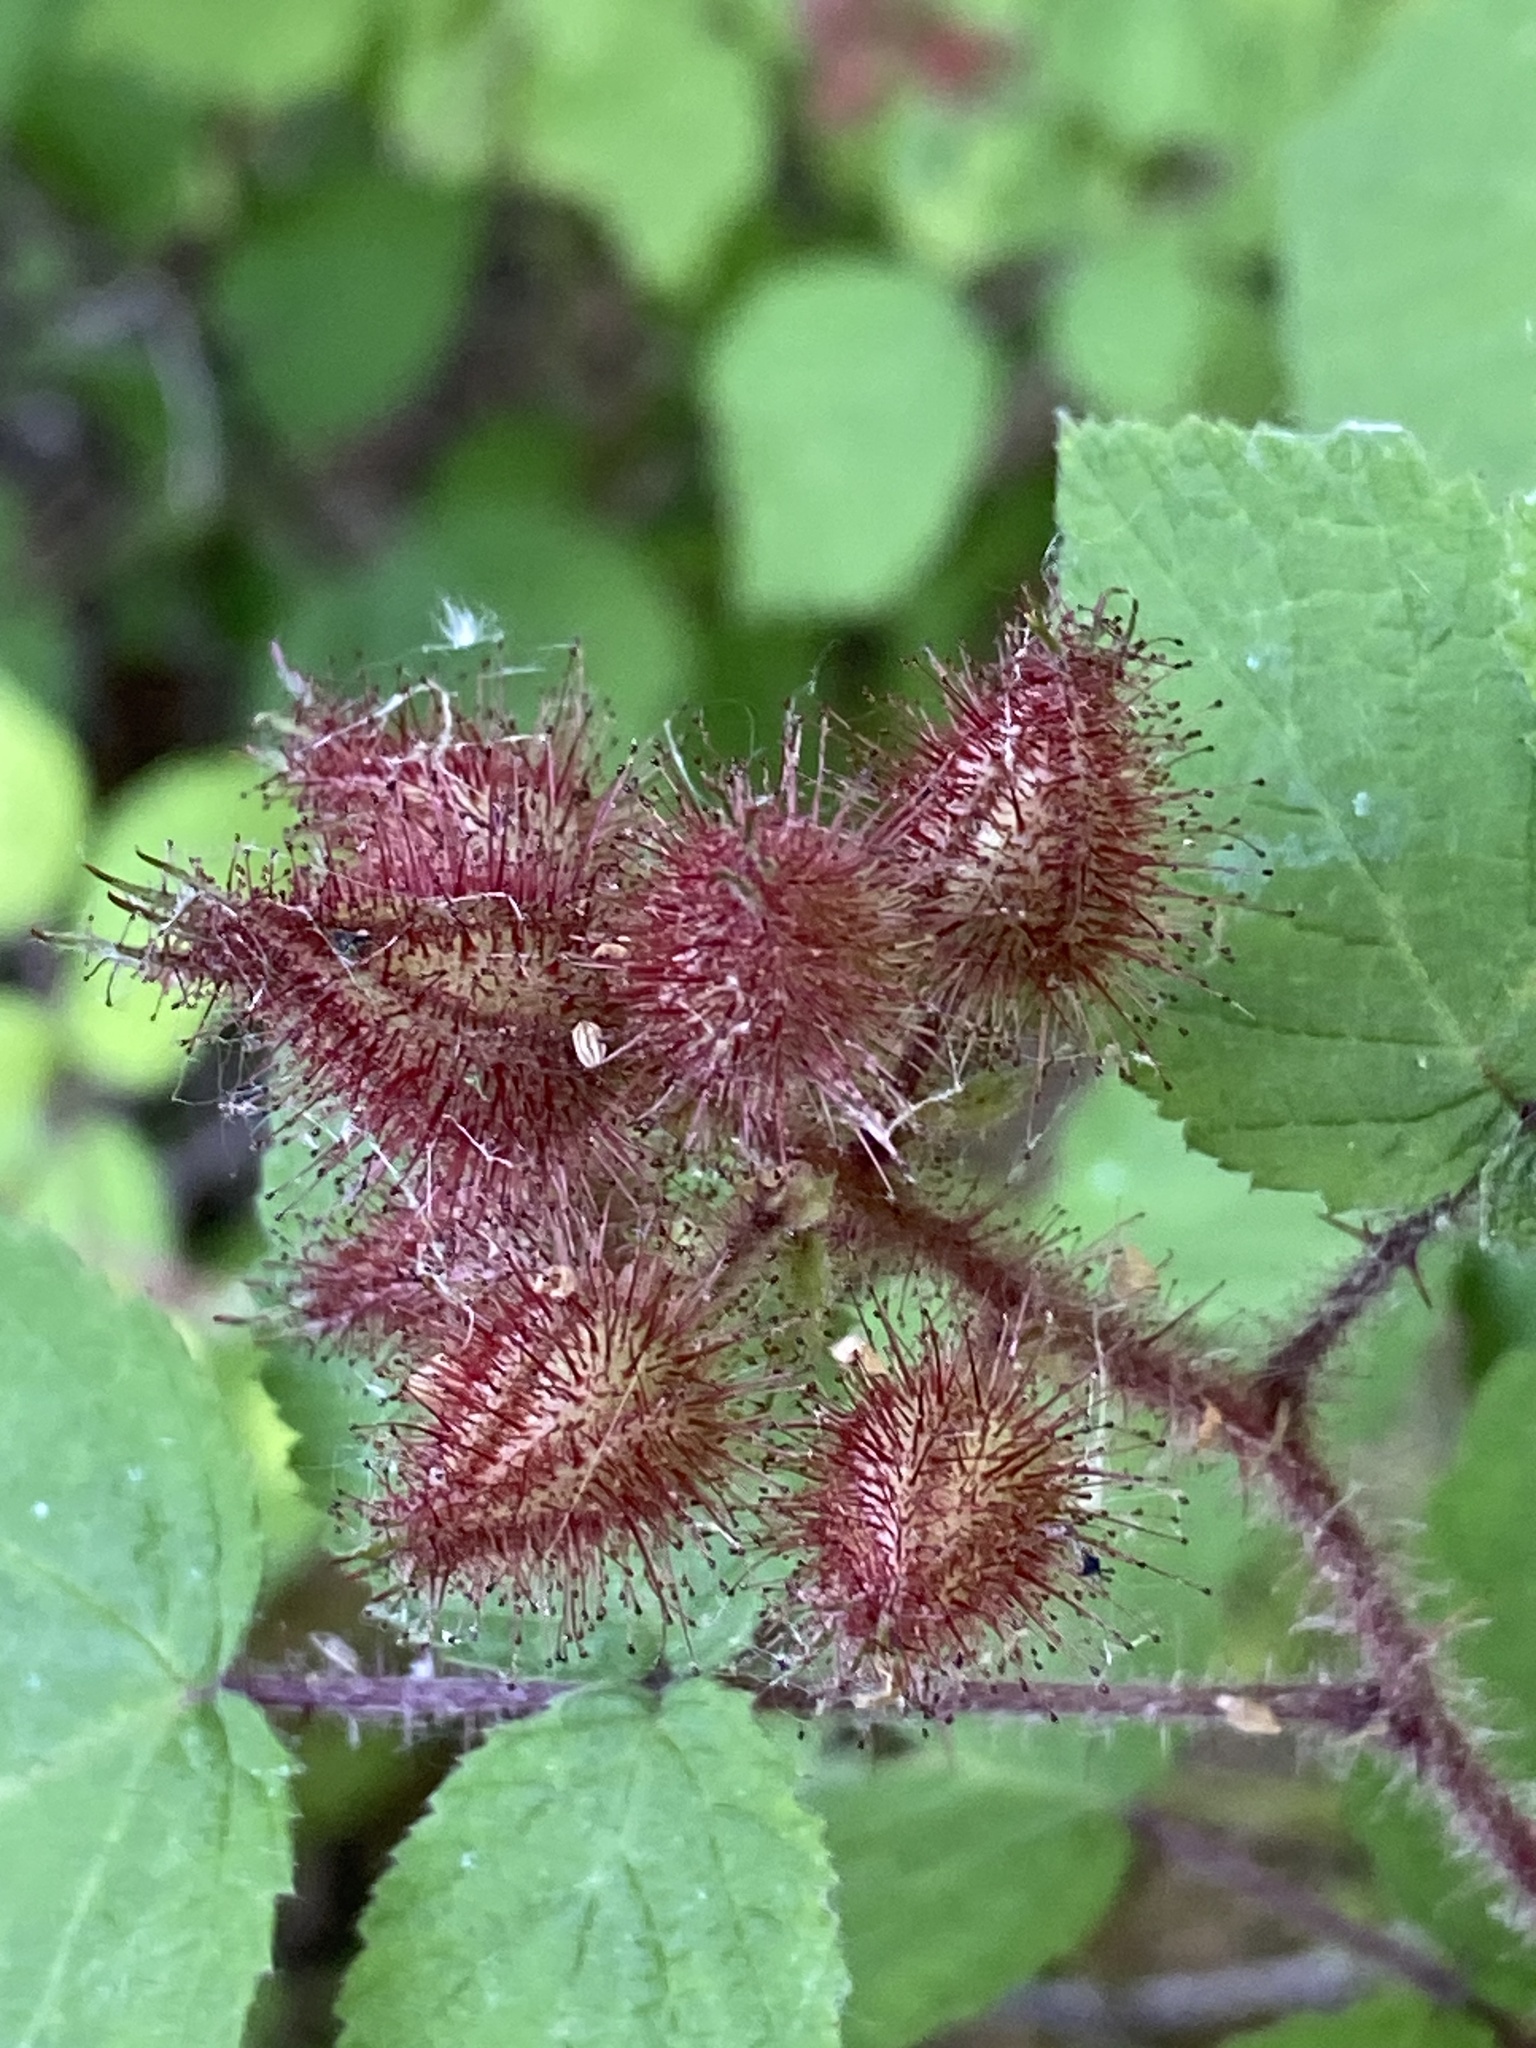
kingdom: Plantae
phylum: Tracheophyta
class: Magnoliopsida
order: Rosales
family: Rosaceae
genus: Rubus
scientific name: Rubus phoenicolasius
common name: Japanese wineberry
